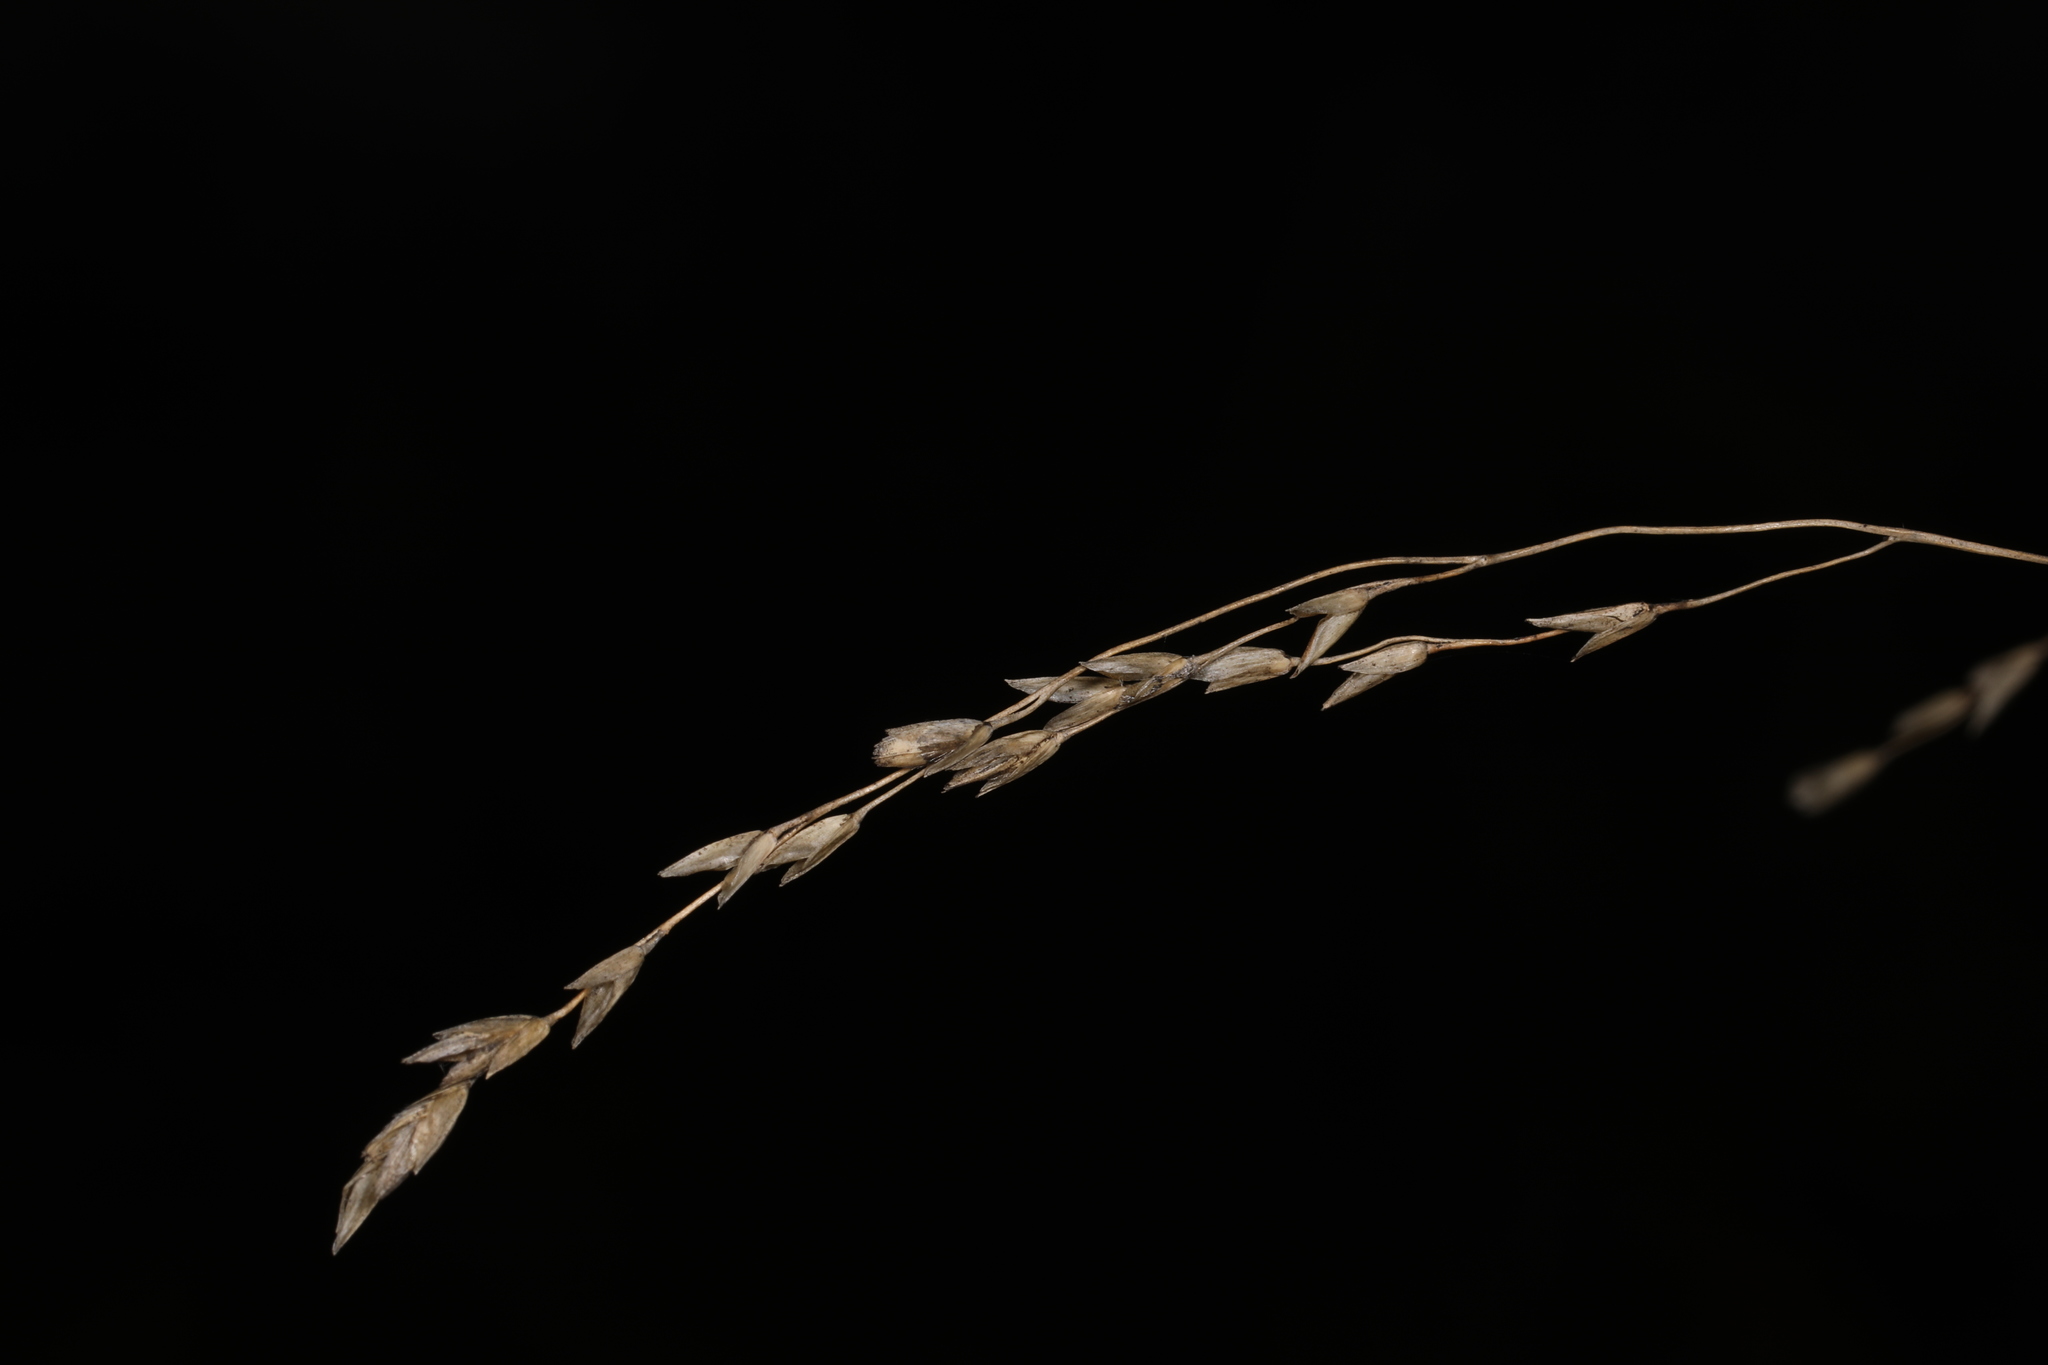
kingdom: Plantae
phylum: Tracheophyta
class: Liliopsida
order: Poales
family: Poaceae
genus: Tridens
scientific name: Tridens flavus
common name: Purpletop
